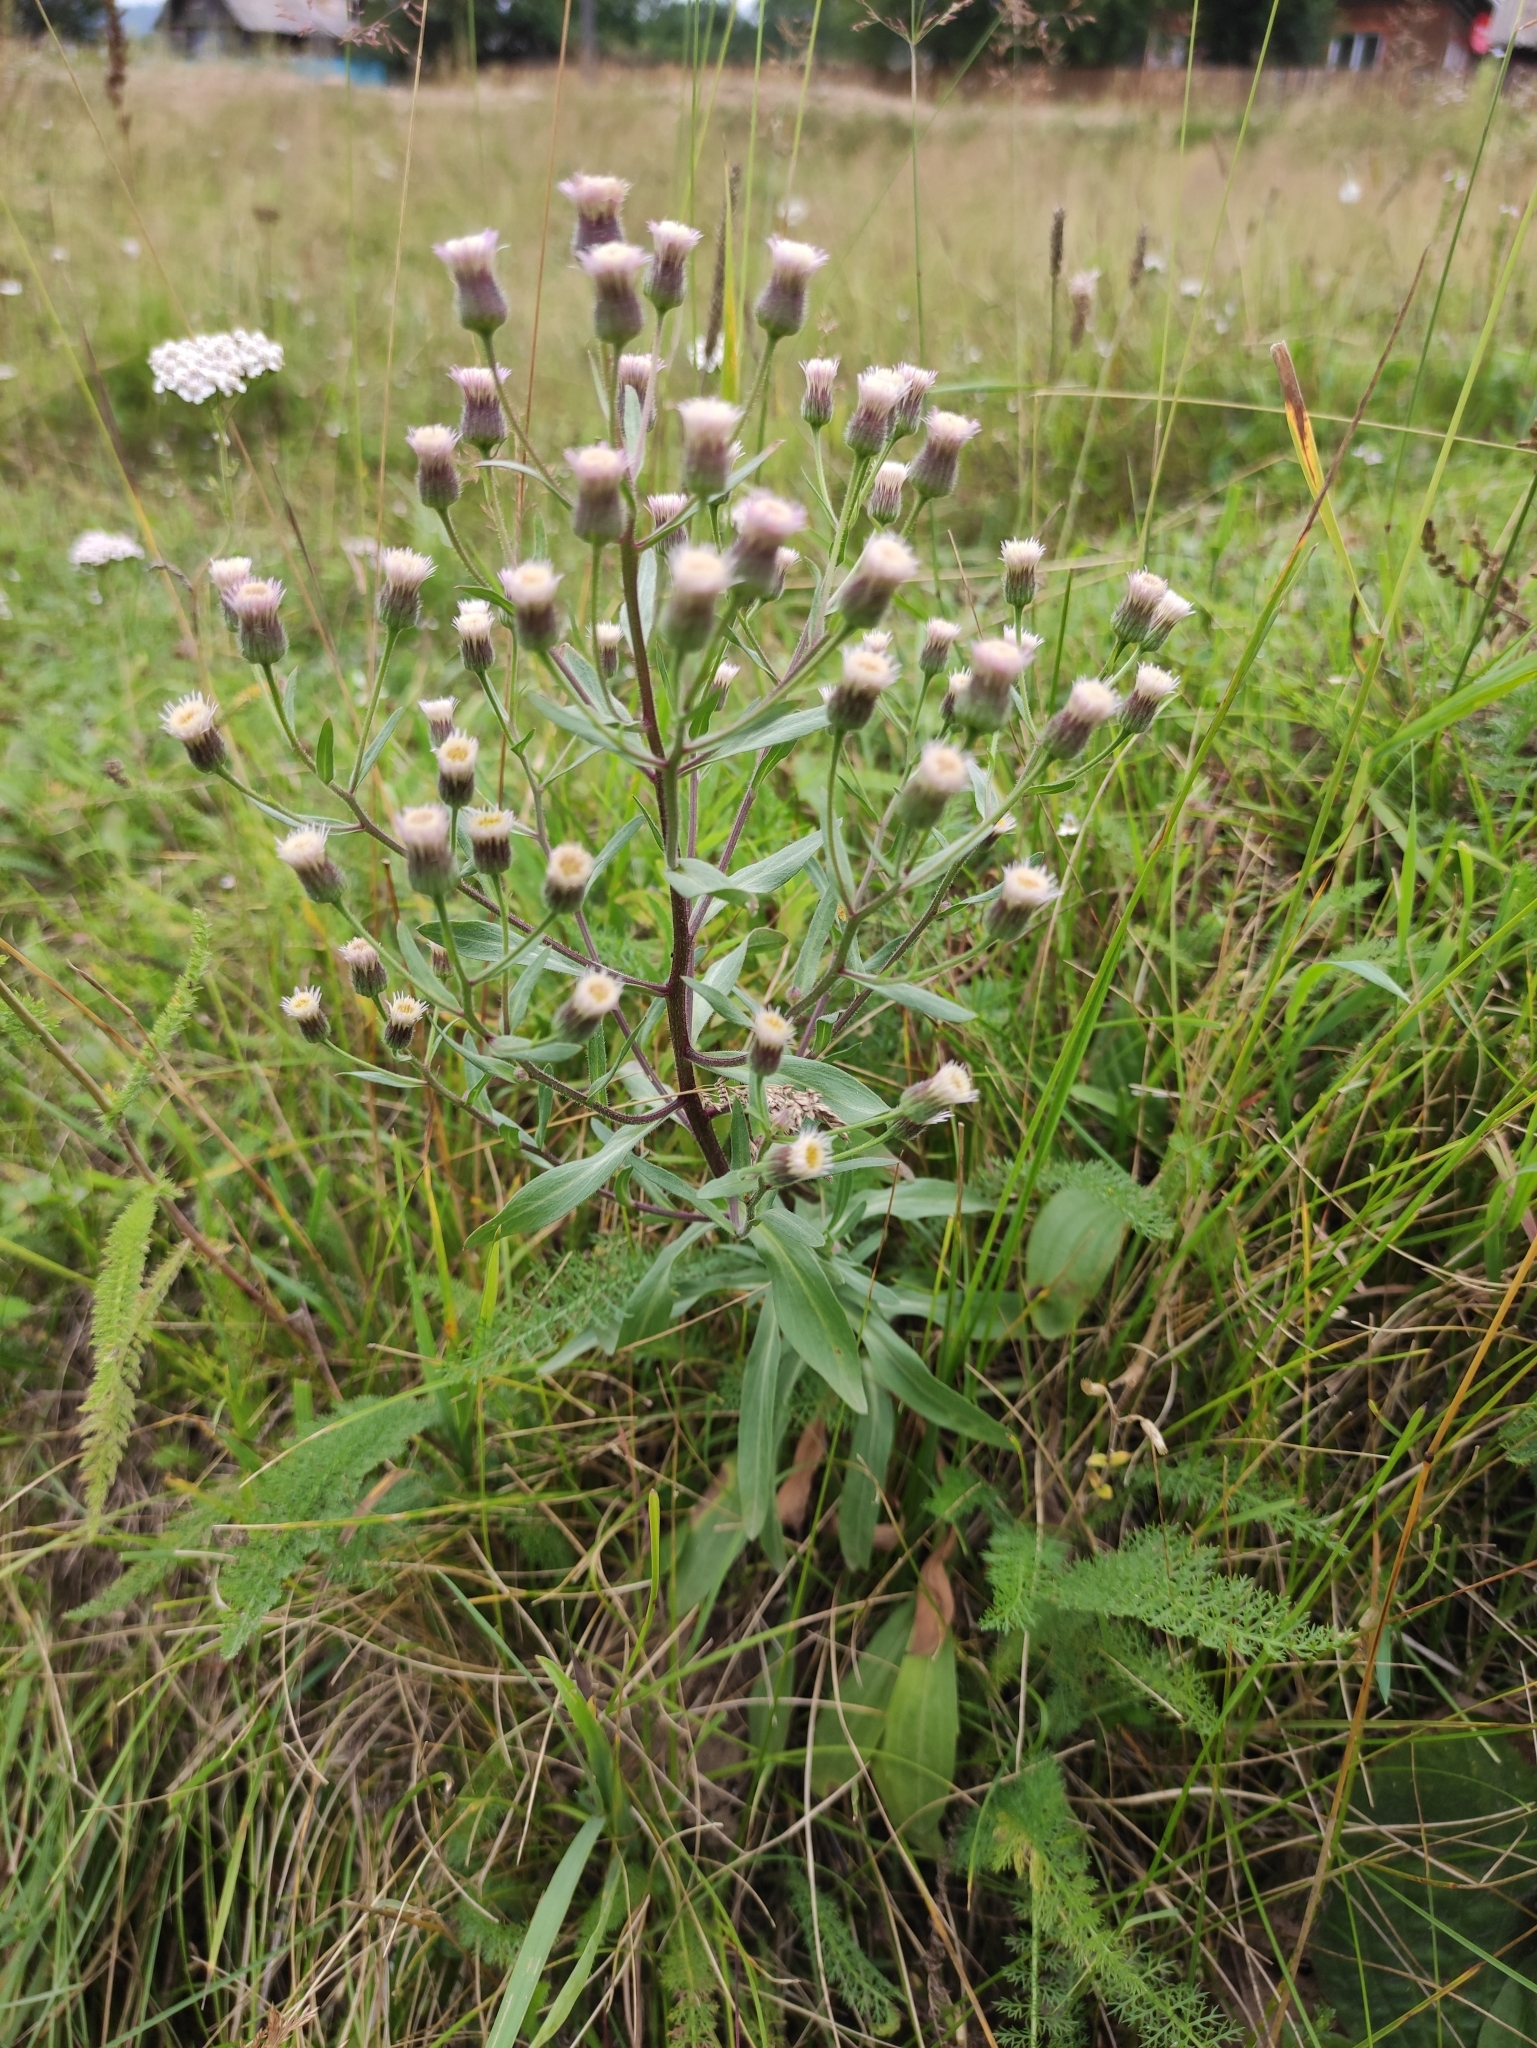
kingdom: Plantae
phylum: Tracheophyta
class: Magnoliopsida
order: Asterales
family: Asteraceae
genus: Erigeron
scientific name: Erigeron acris
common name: Blue fleabane
